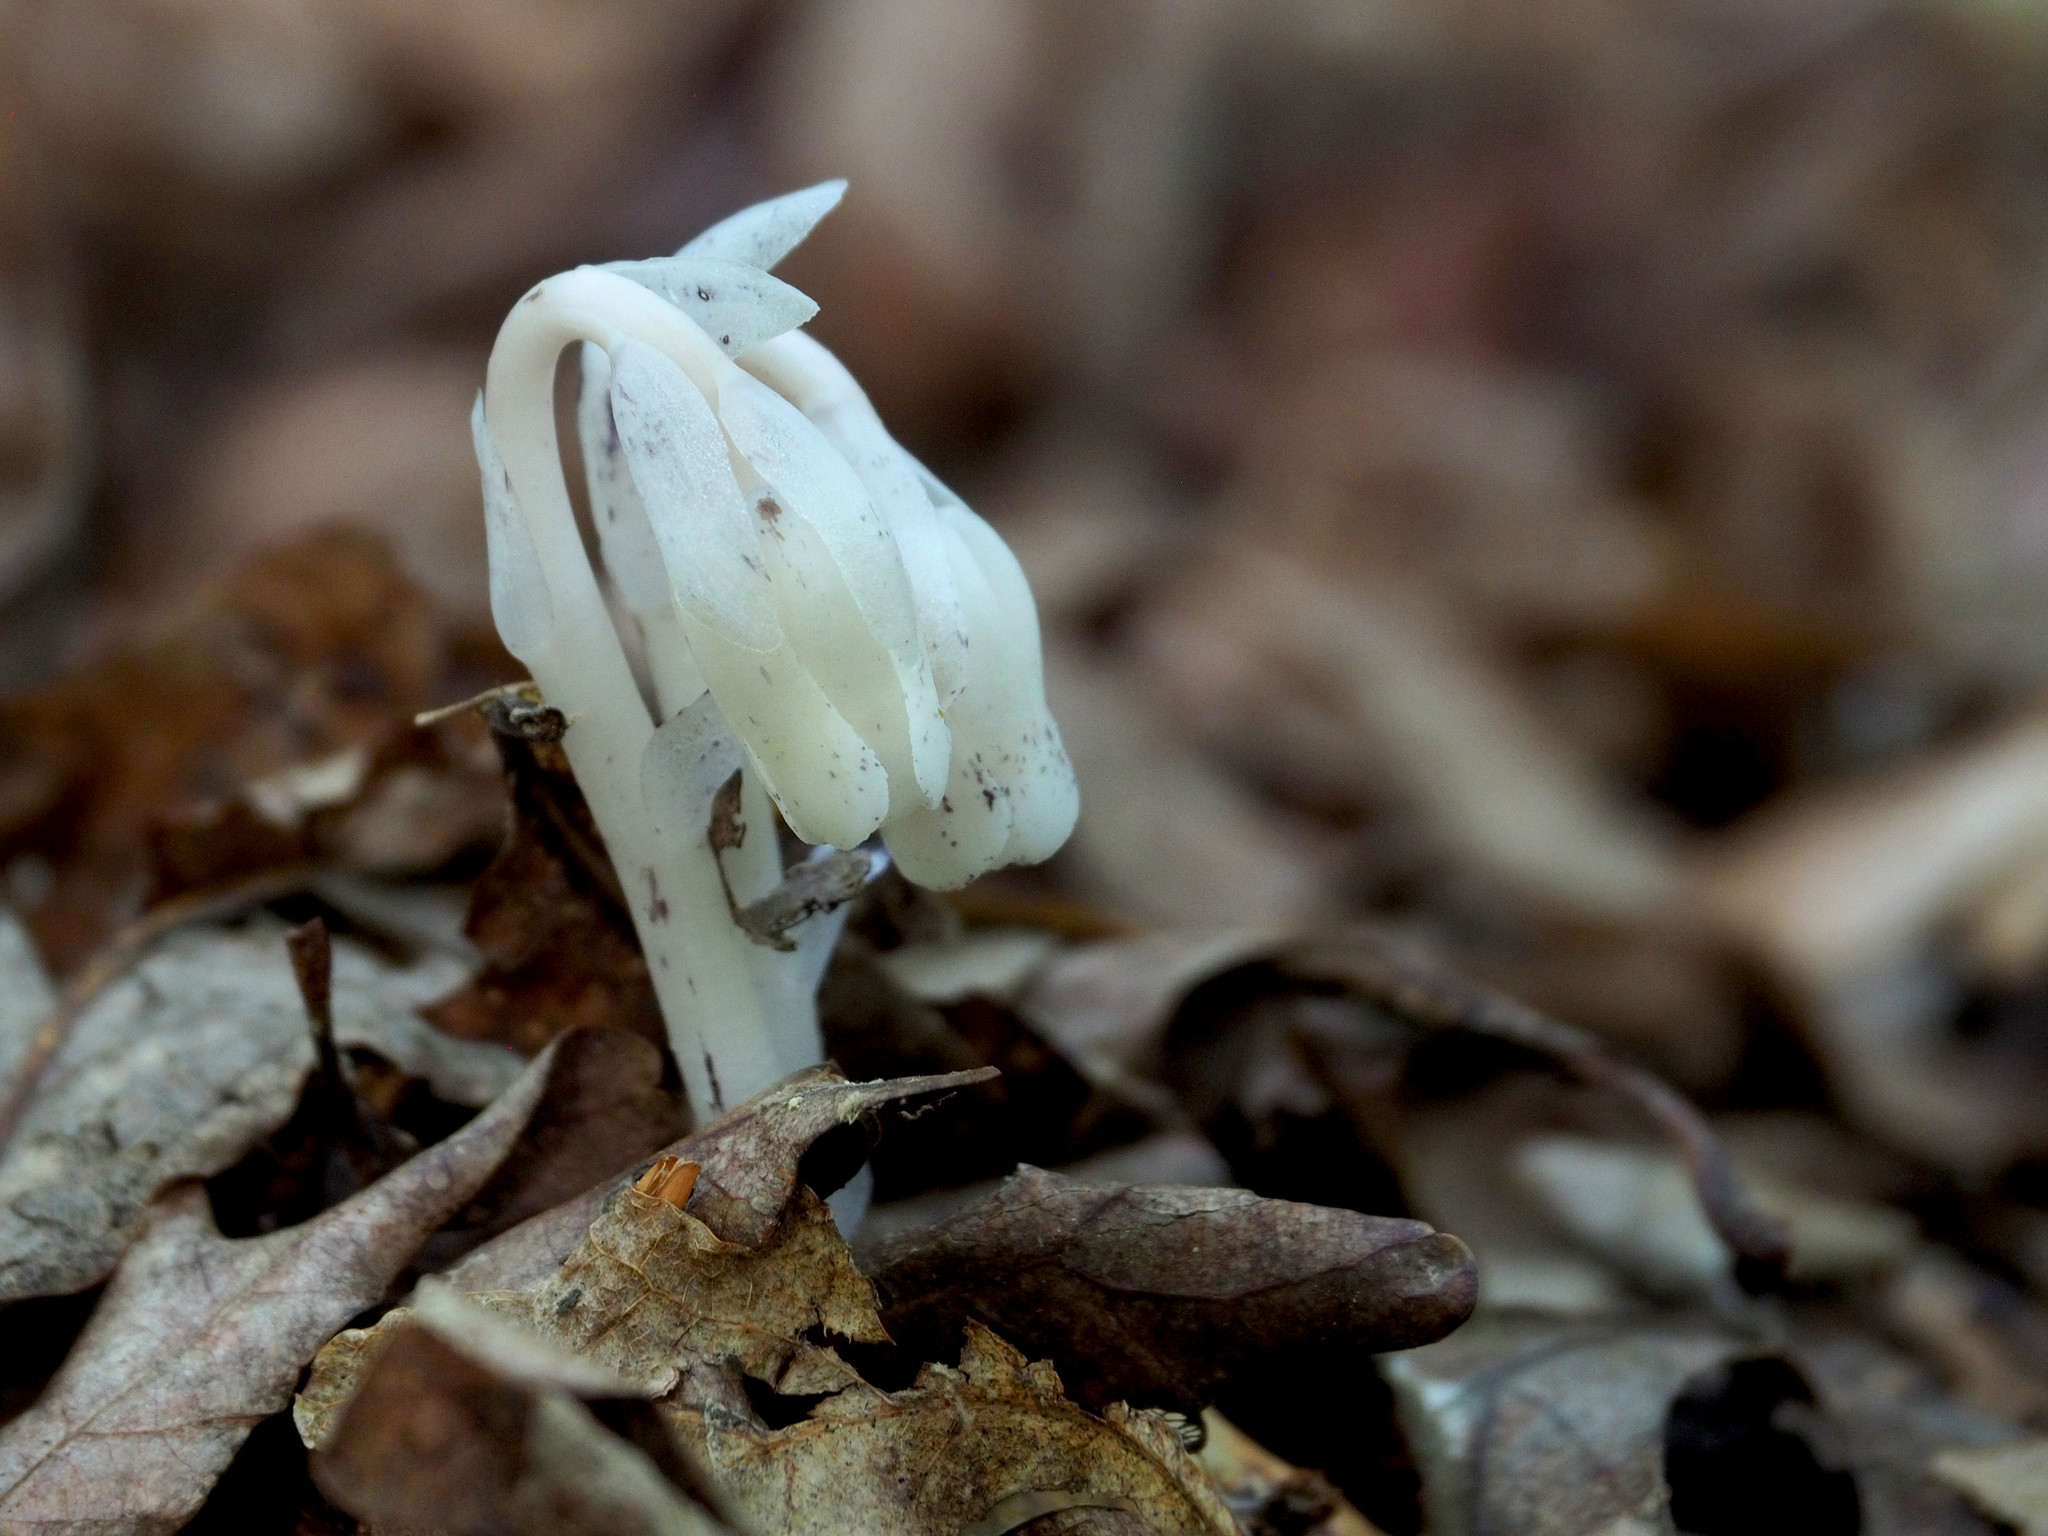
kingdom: Plantae
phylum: Tracheophyta
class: Magnoliopsida
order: Ericales
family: Ericaceae
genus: Monotropa
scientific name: Monotropa uniflora
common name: Convulsion root
